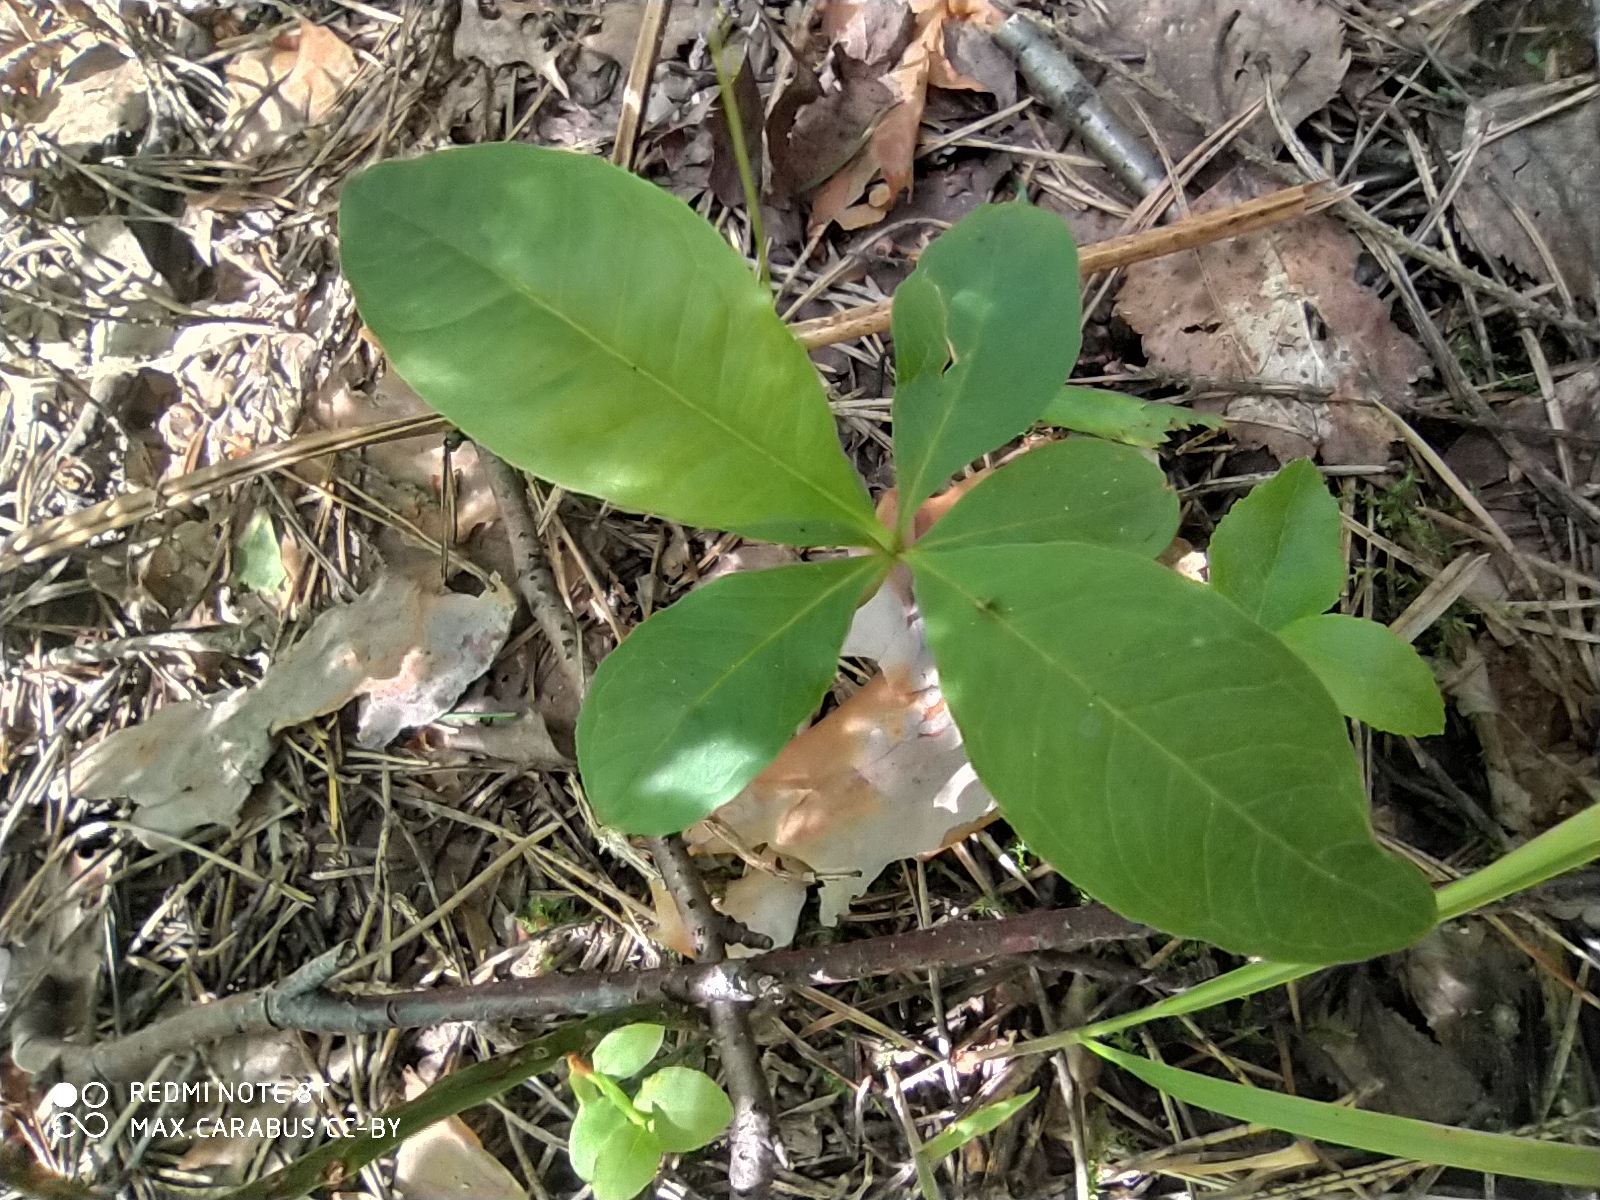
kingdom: Plantae
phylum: Tracheophyta
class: Magnoliopsida
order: Ericales
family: Primulaceae
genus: Lysimachia
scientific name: Lysimachia europaea
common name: Arctic starflower
